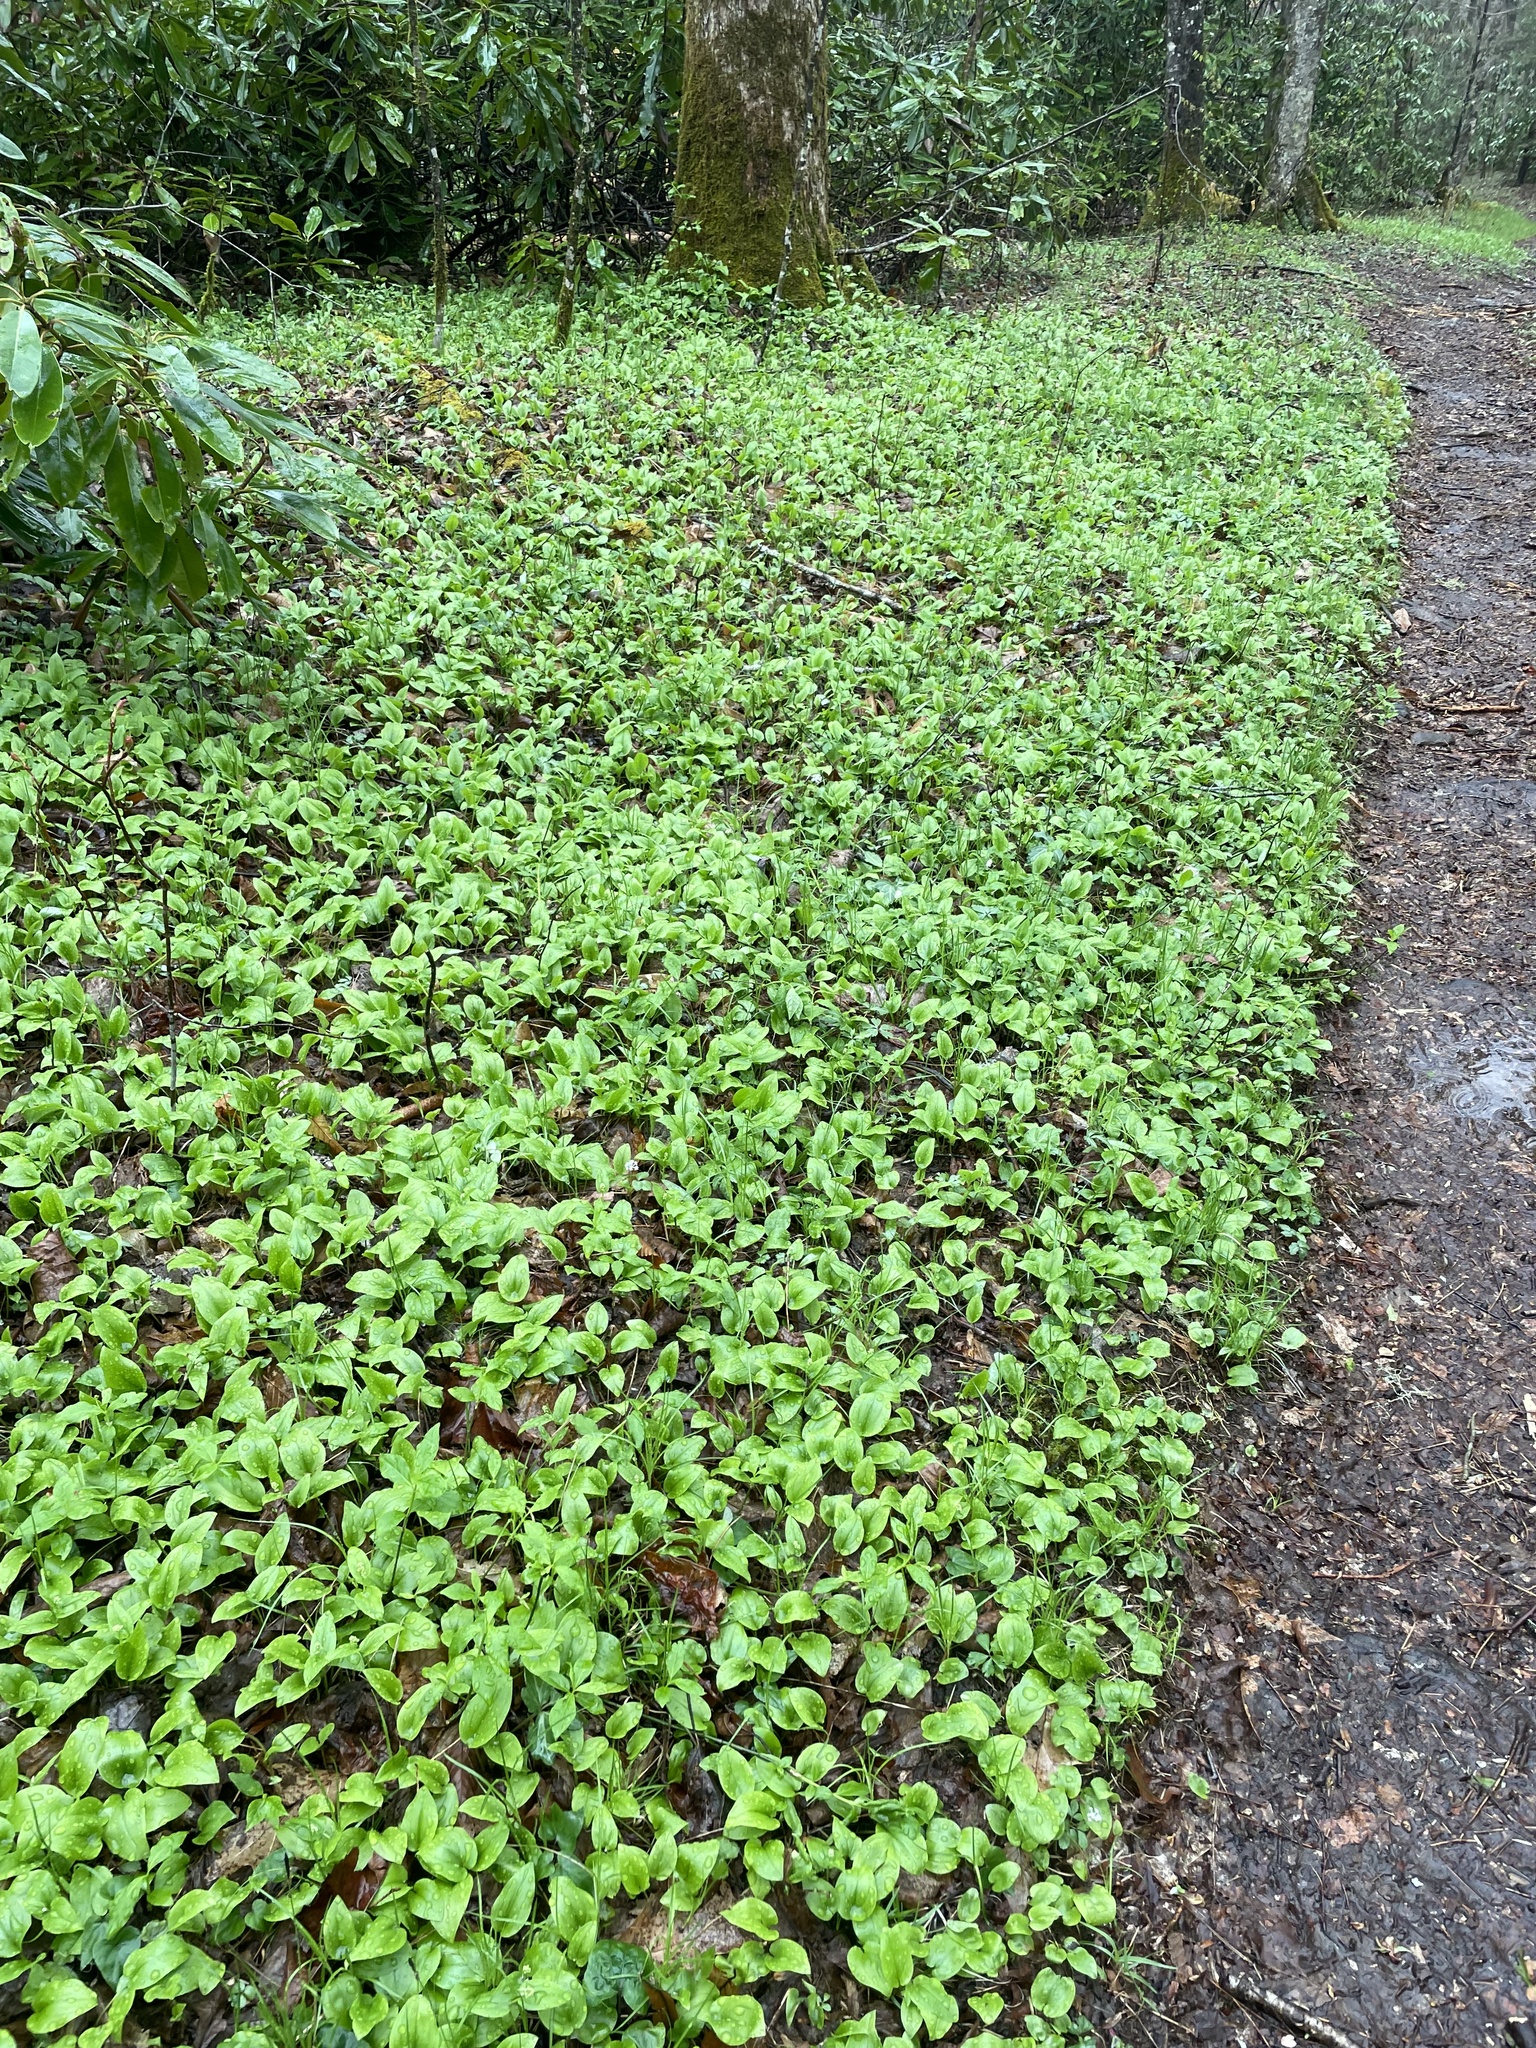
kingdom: Plantae
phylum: Tracheophyta
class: Liliopsida
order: Asparagales
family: Asparagaceae
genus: Maianthemum
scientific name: Maianthemum canadense
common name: False lily-of-the-valley
